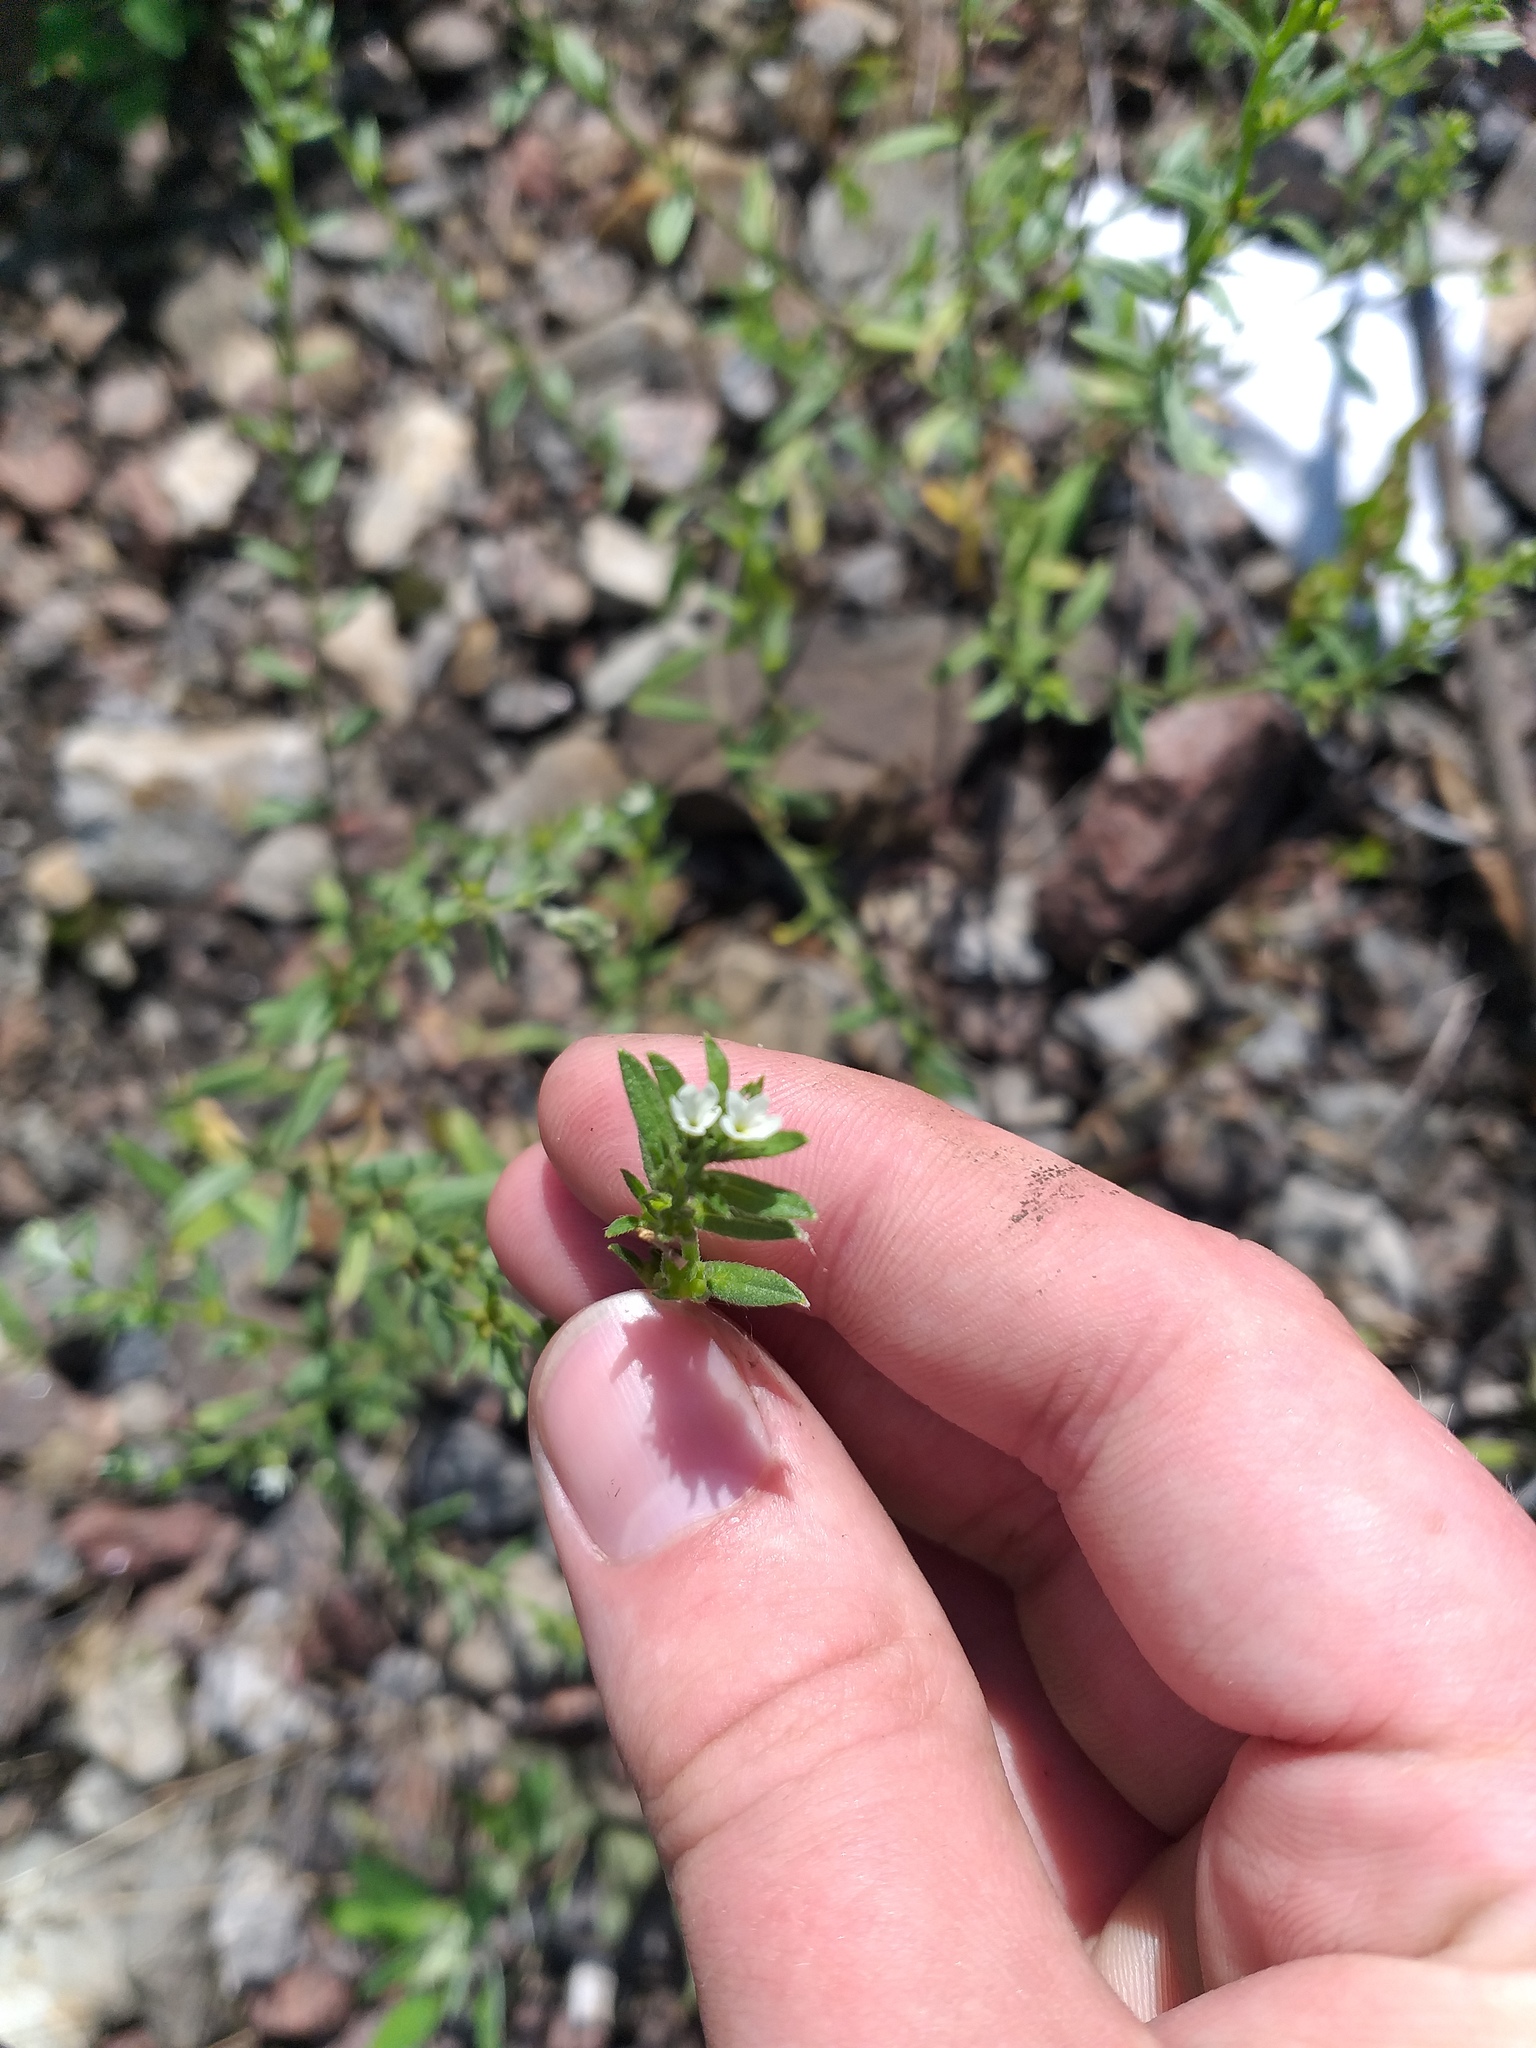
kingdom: Plantae
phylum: Tracheophyta
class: Magnoliopsida
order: Boraginales
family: Boraginaceae
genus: Buglossoides
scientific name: Buglossoides arvensis
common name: Corn gromwell
